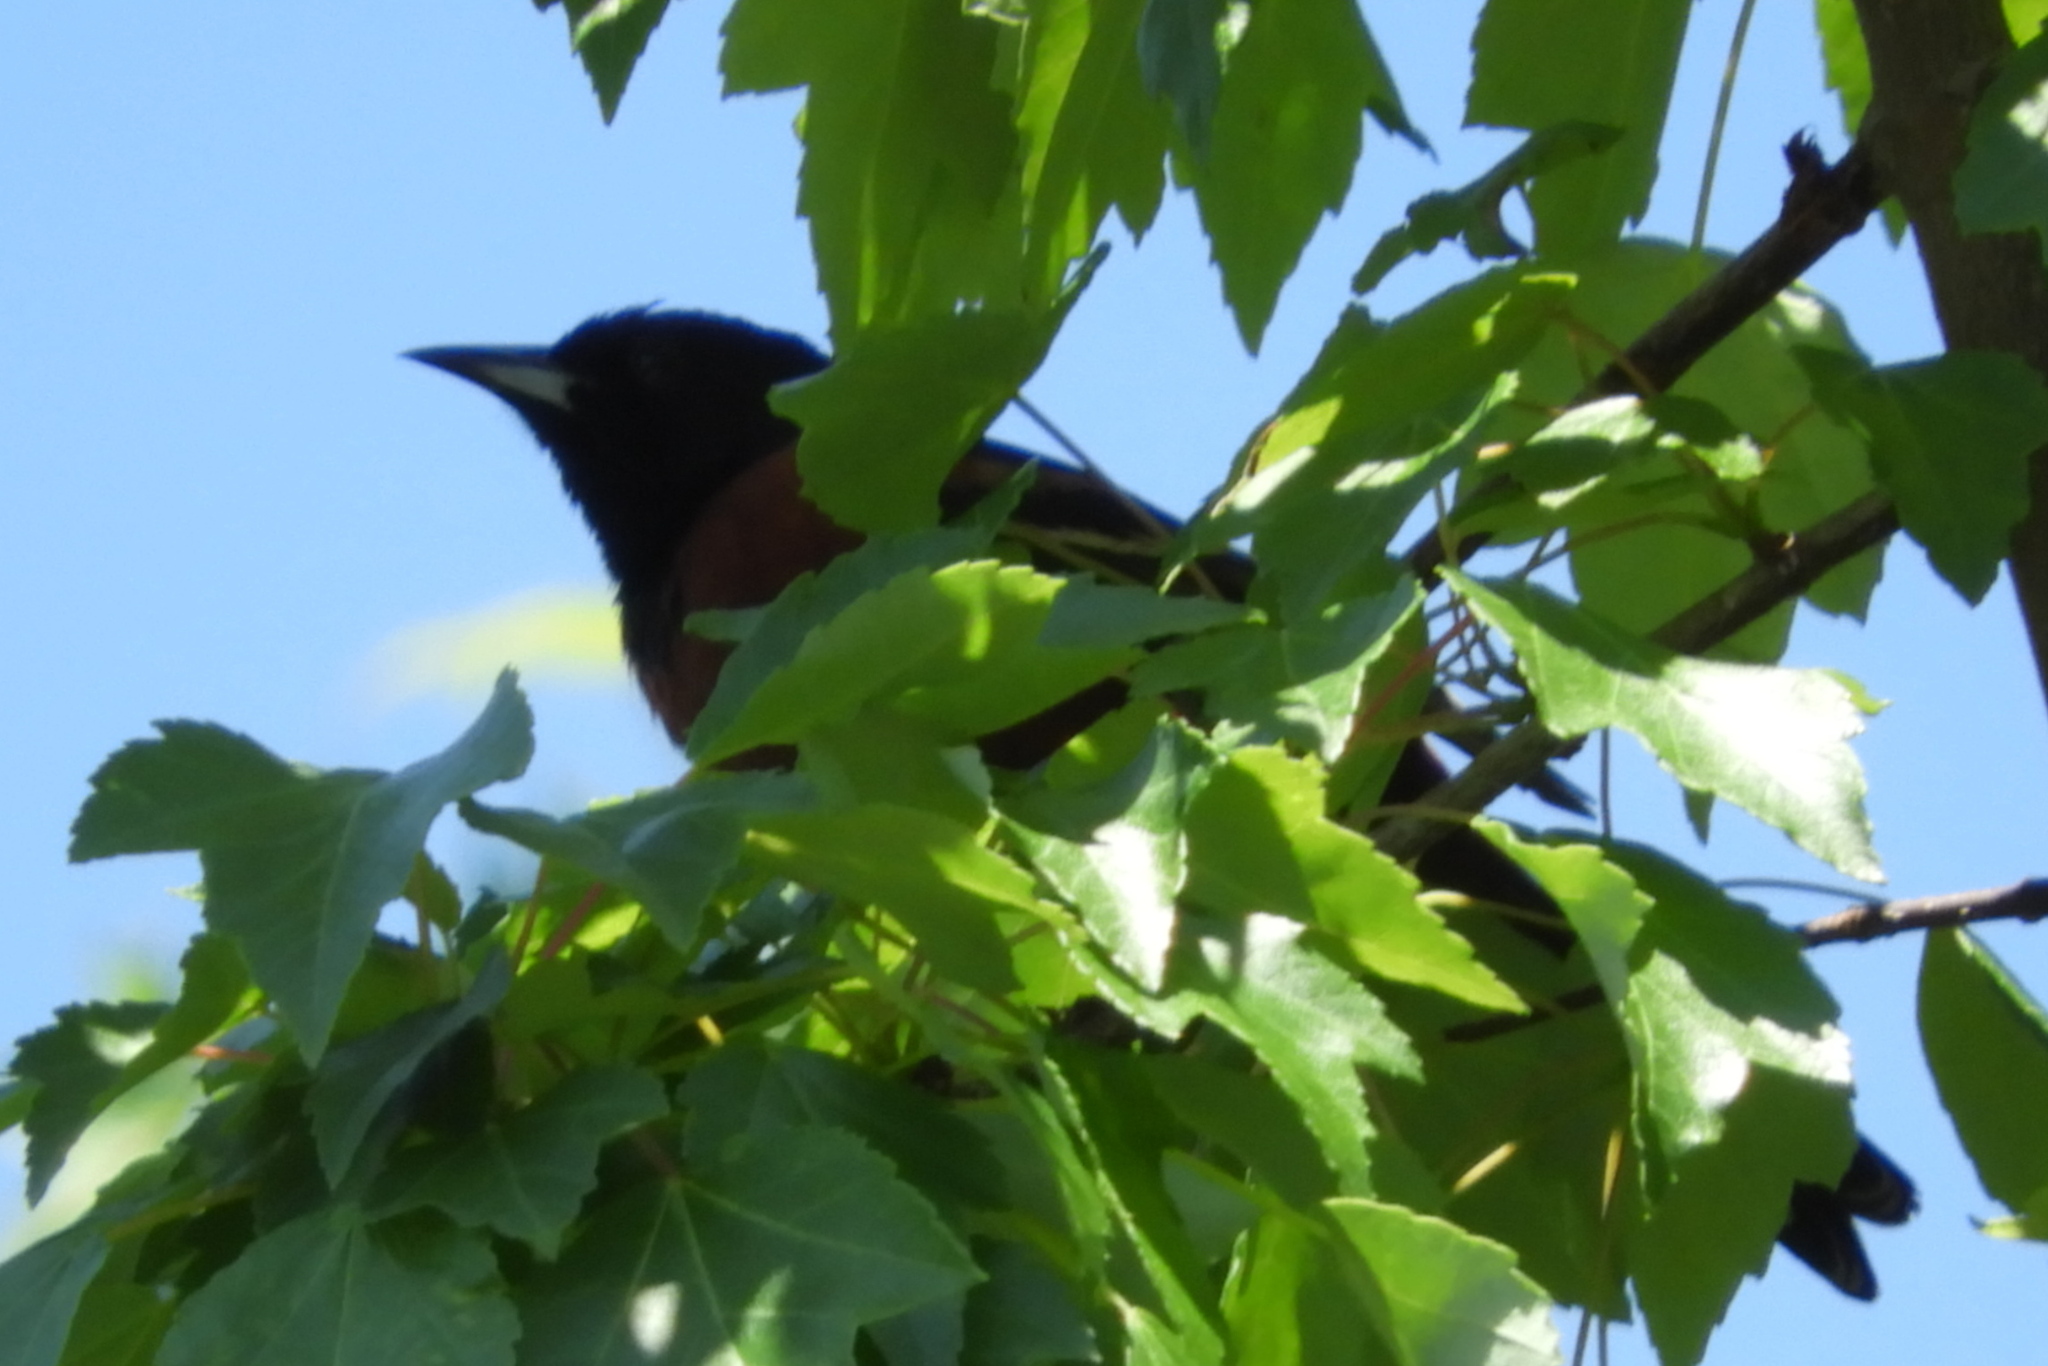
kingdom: Animalia
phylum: Chordata
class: Aves
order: Passeriformes
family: Icteridae
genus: Icterus
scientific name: Icterus spurius
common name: Orchard oriole
